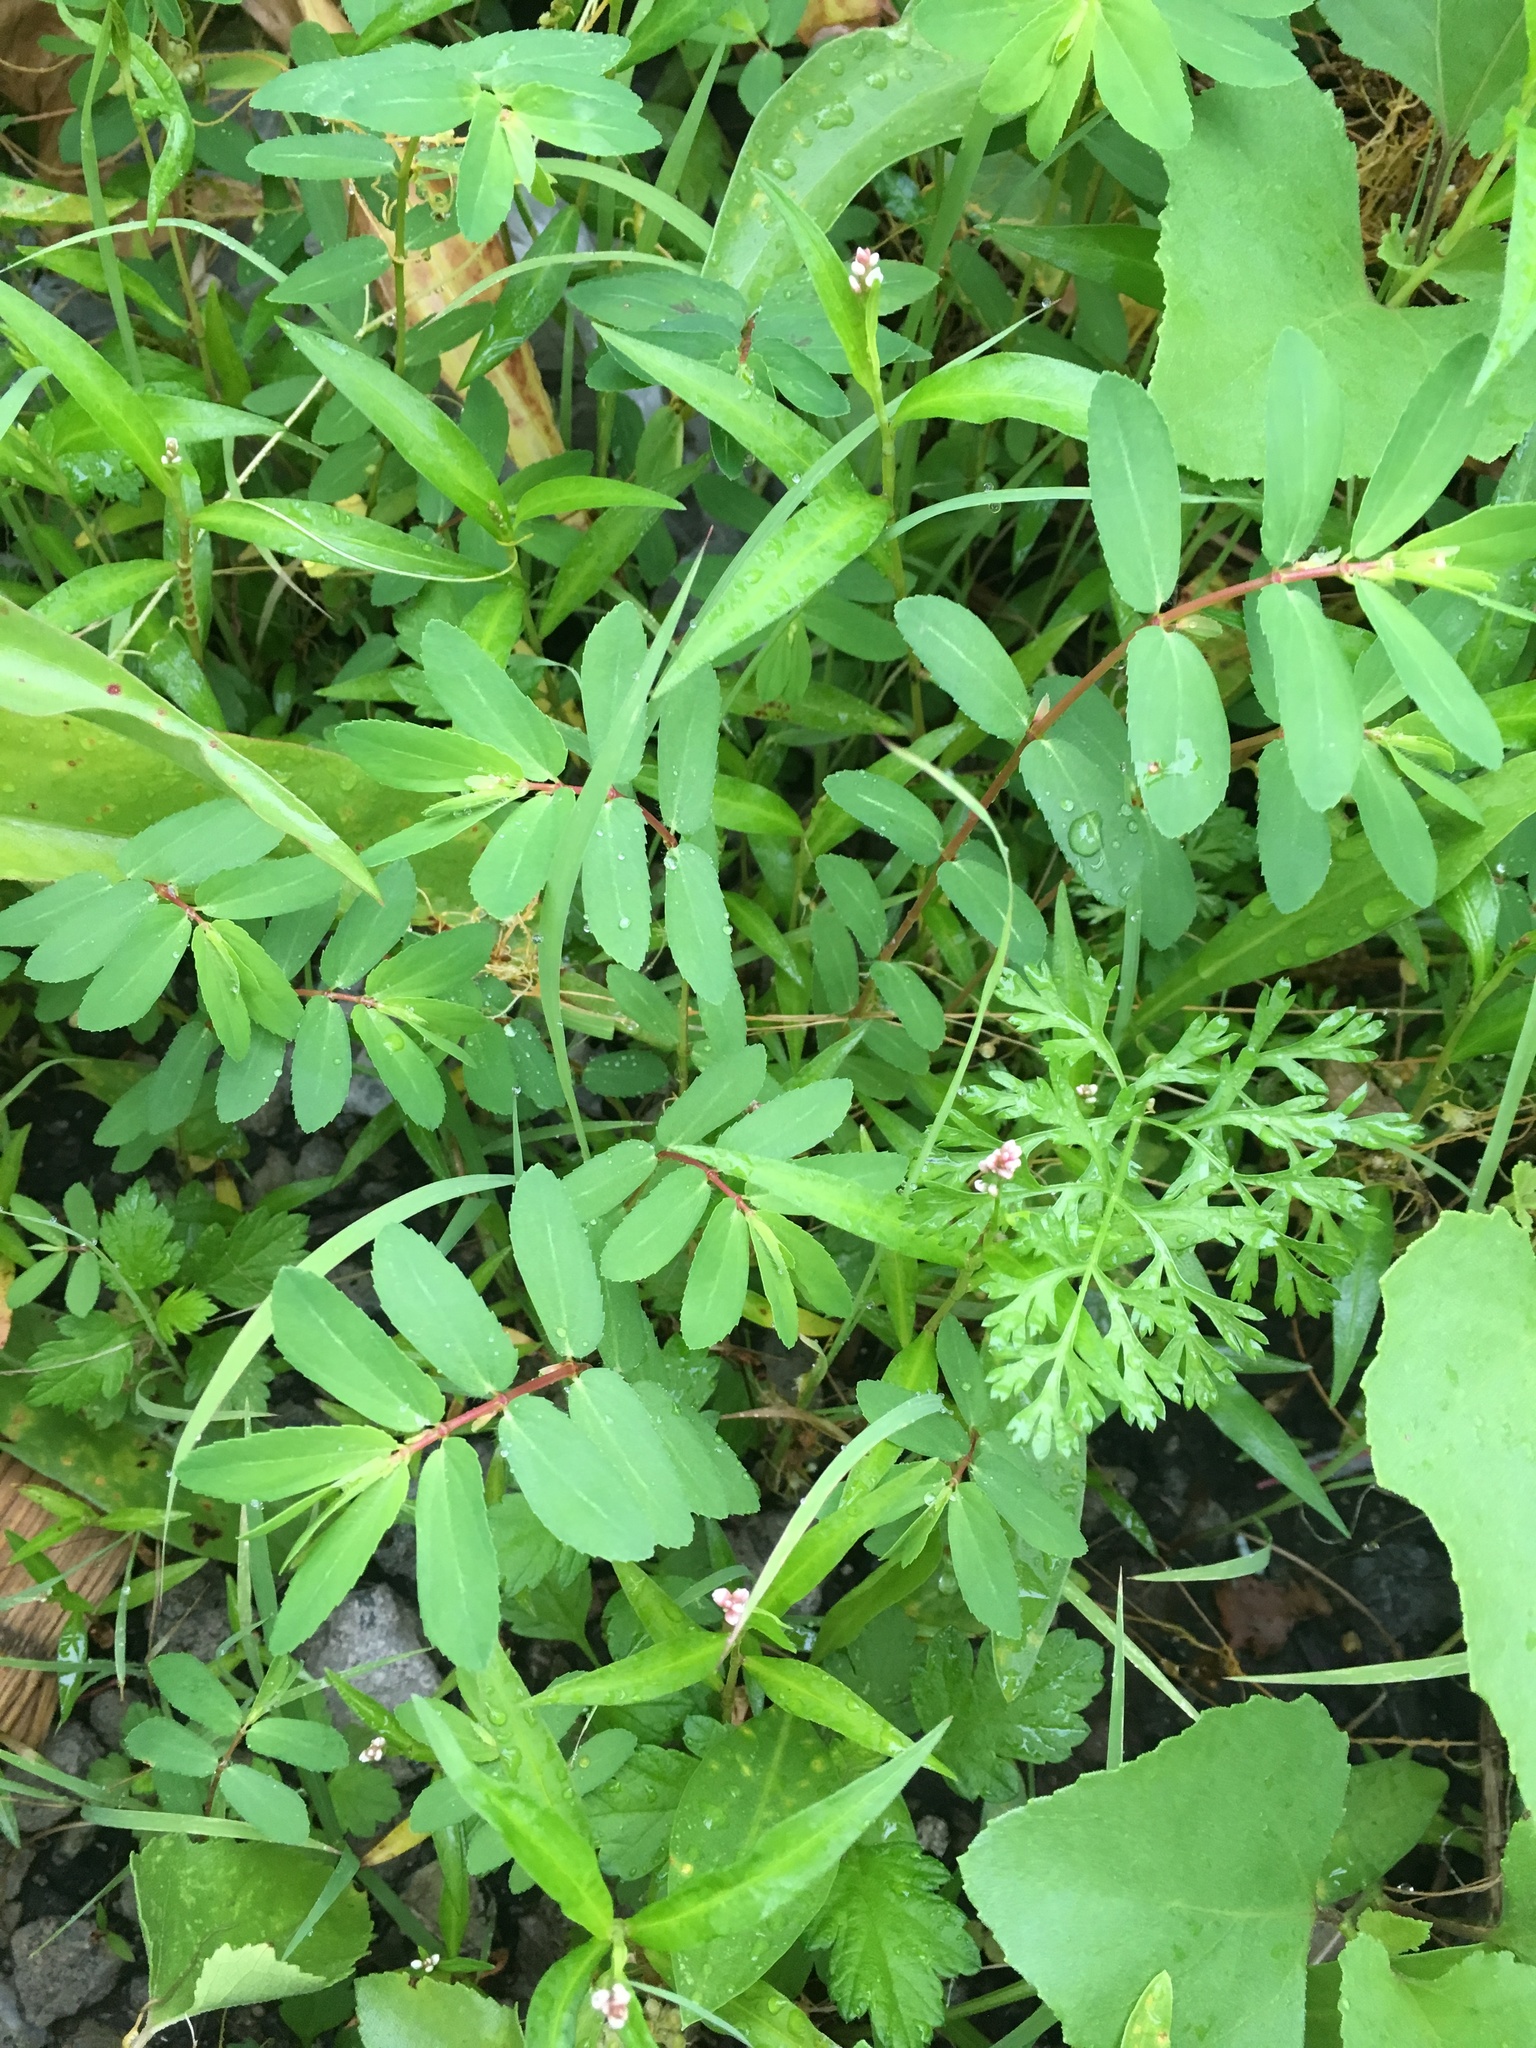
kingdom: Plantae
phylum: Tracheophyta
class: Magnoliopsida
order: Malpighiales
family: Euphorbiaceae
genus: Euphorbia
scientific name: Euphorbia nutans
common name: Eyebane
